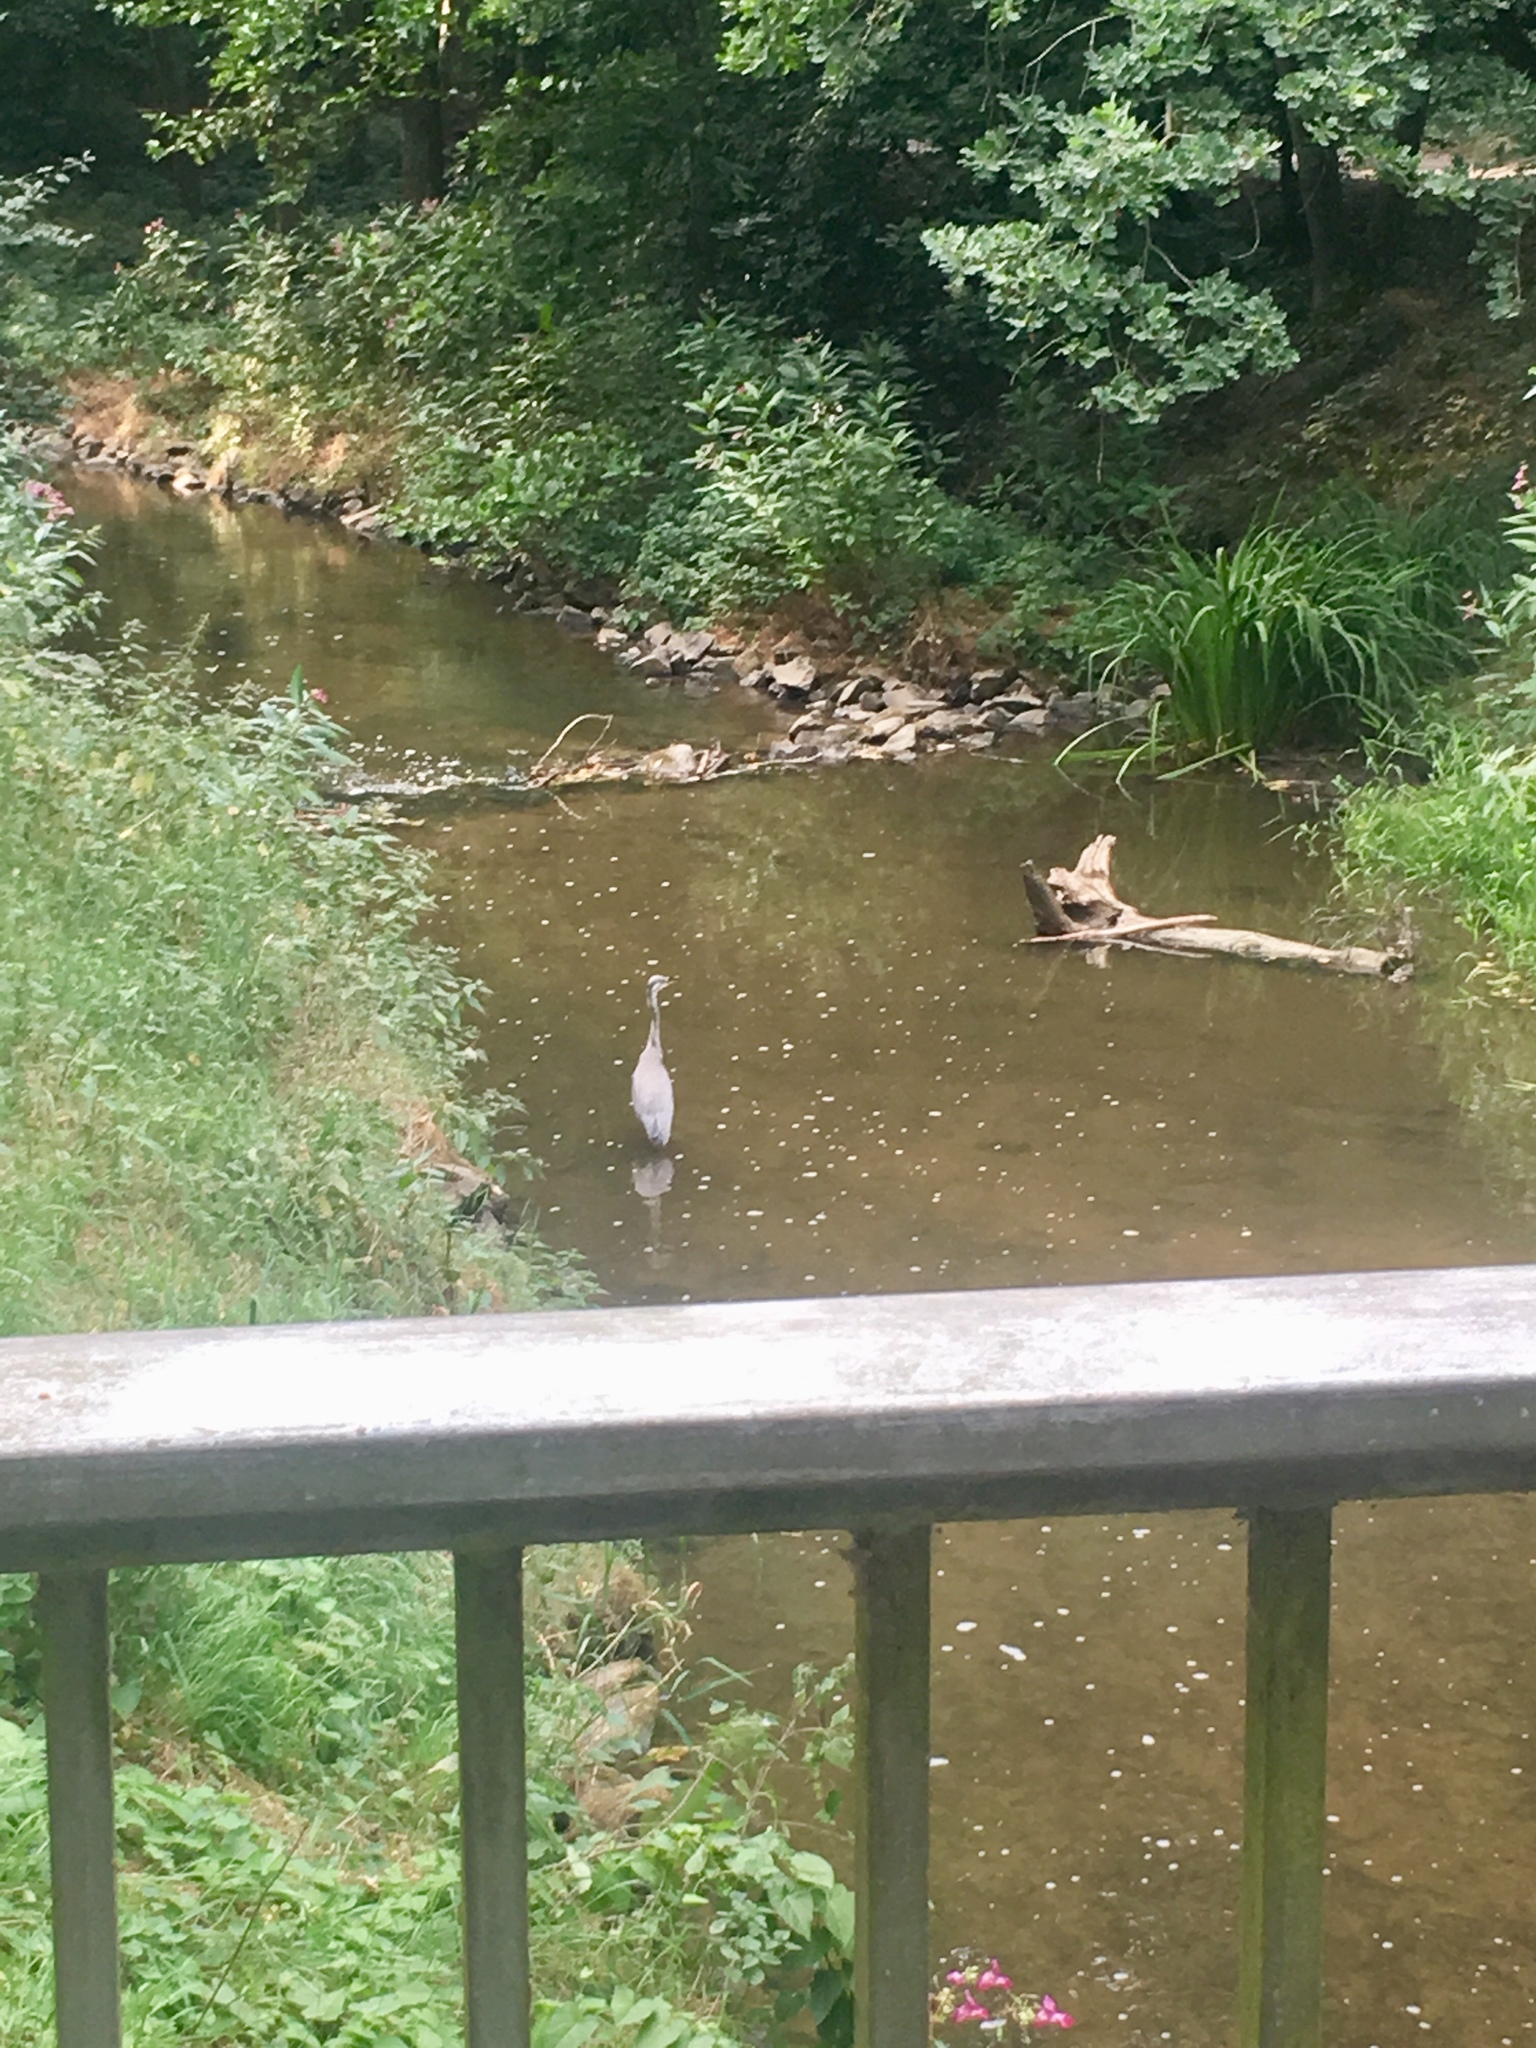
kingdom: Animalia
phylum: Chordata
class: Aves
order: Pelecaniformes
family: Ardeidae
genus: Ardea
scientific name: Ardea cinerea
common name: Grey heron
